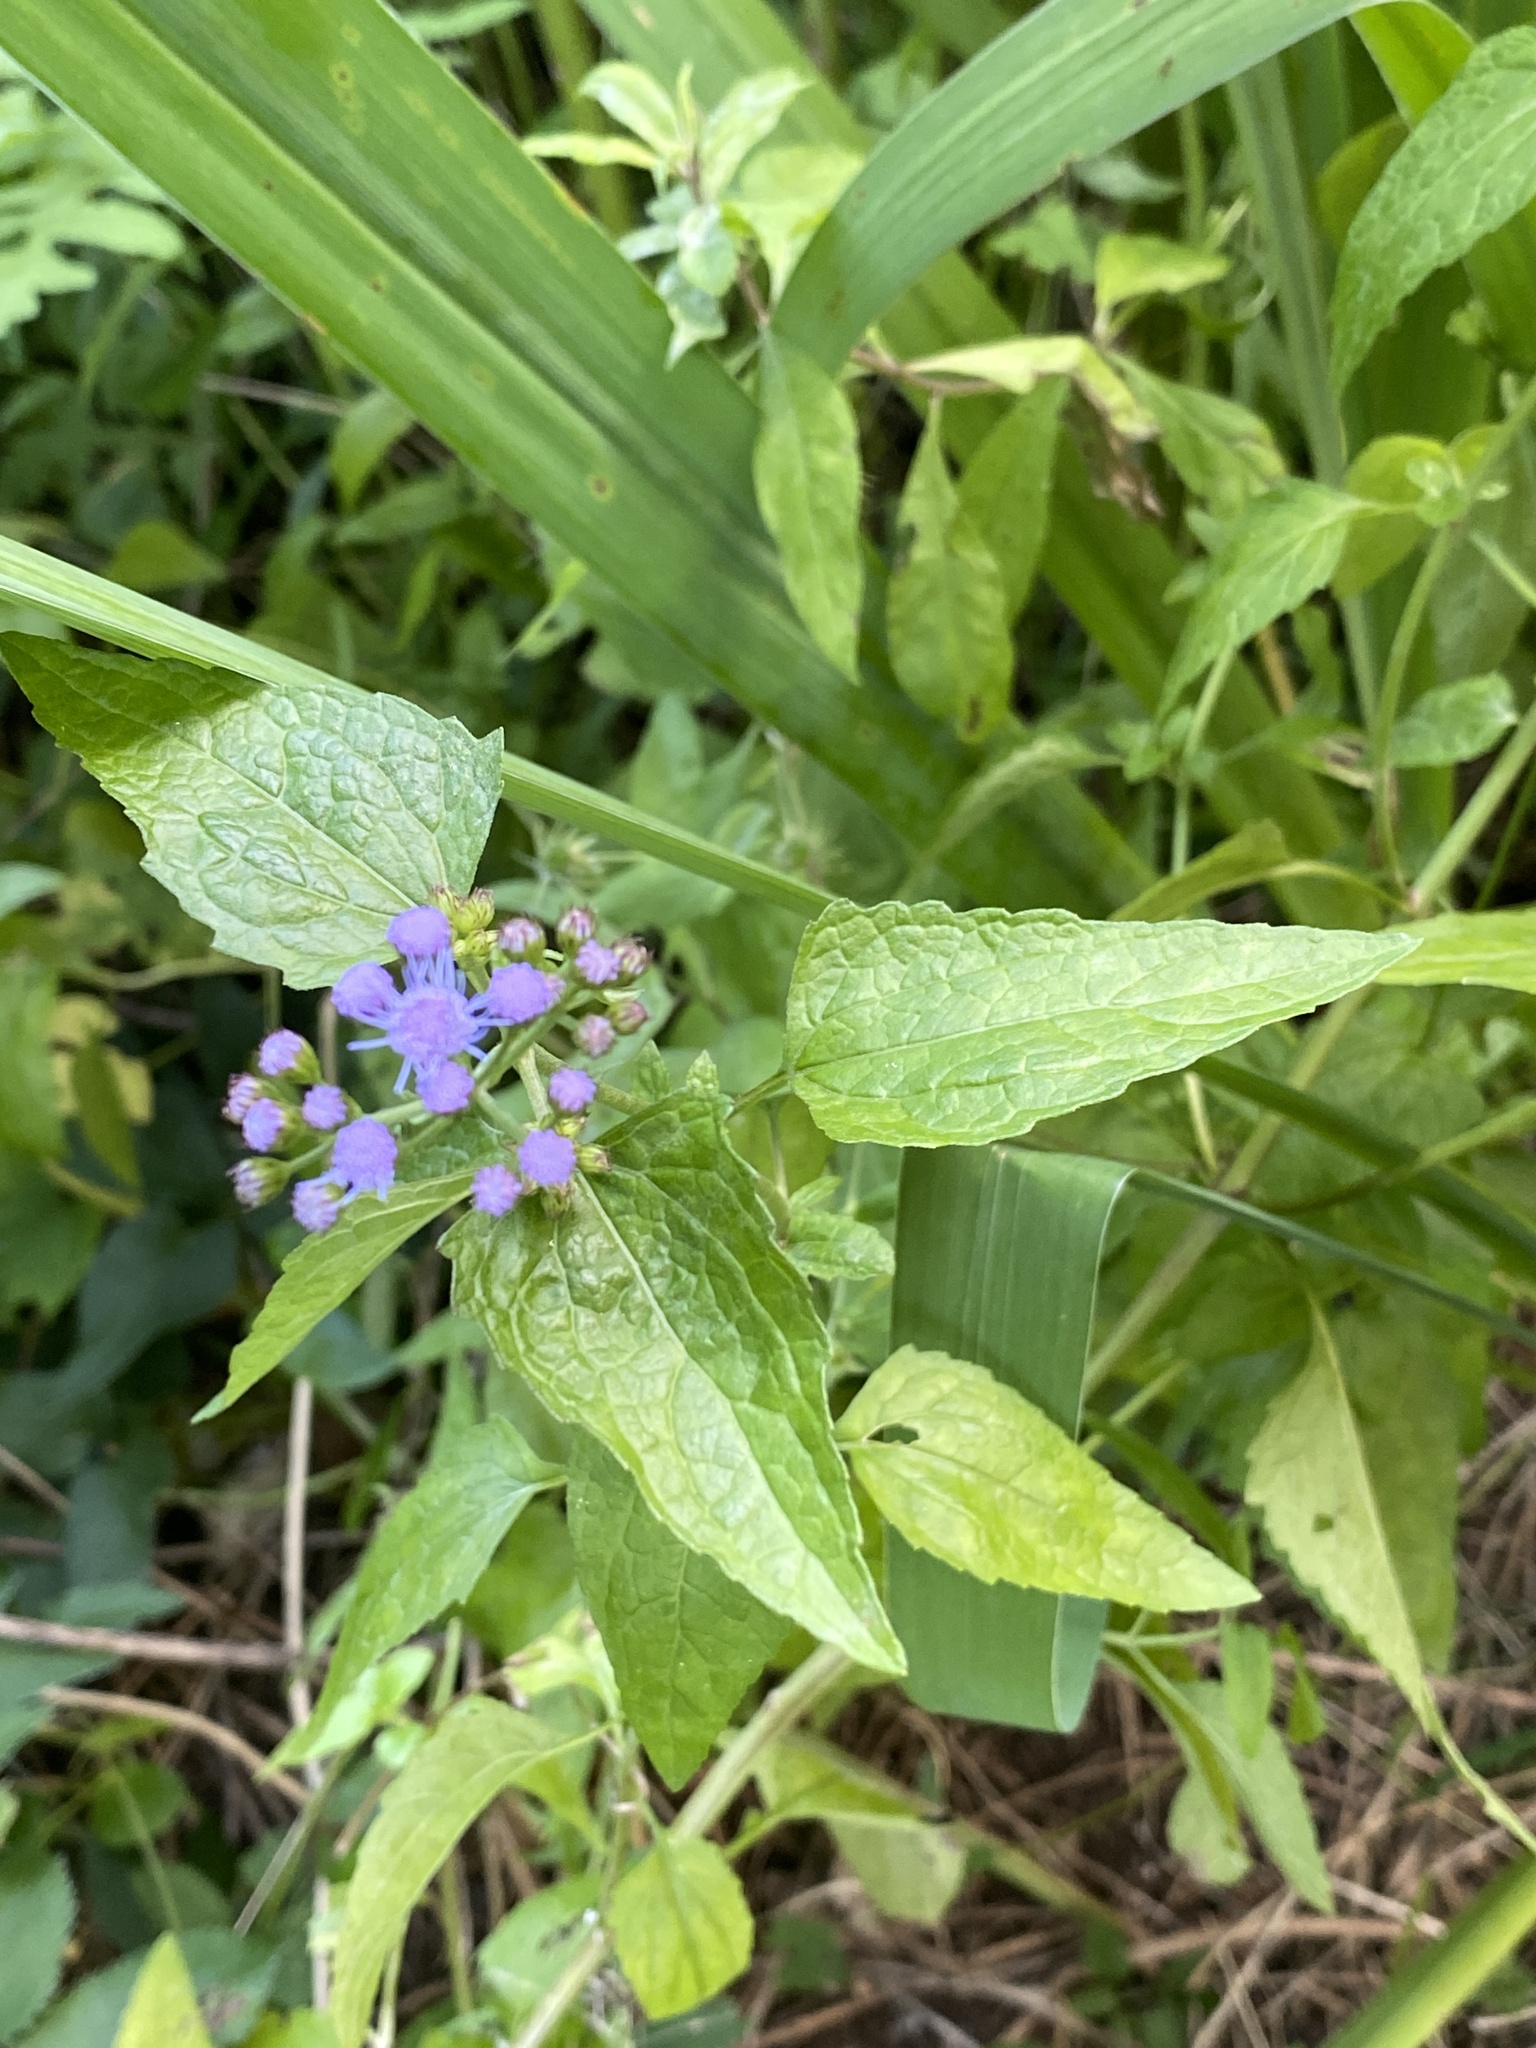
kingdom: Plantae
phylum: Tracheophyta
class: Magnoliopsida
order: Asterales
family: Asteraceae
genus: Conoclinium
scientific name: Conoclinium coelestinum
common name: Blue mistflower
